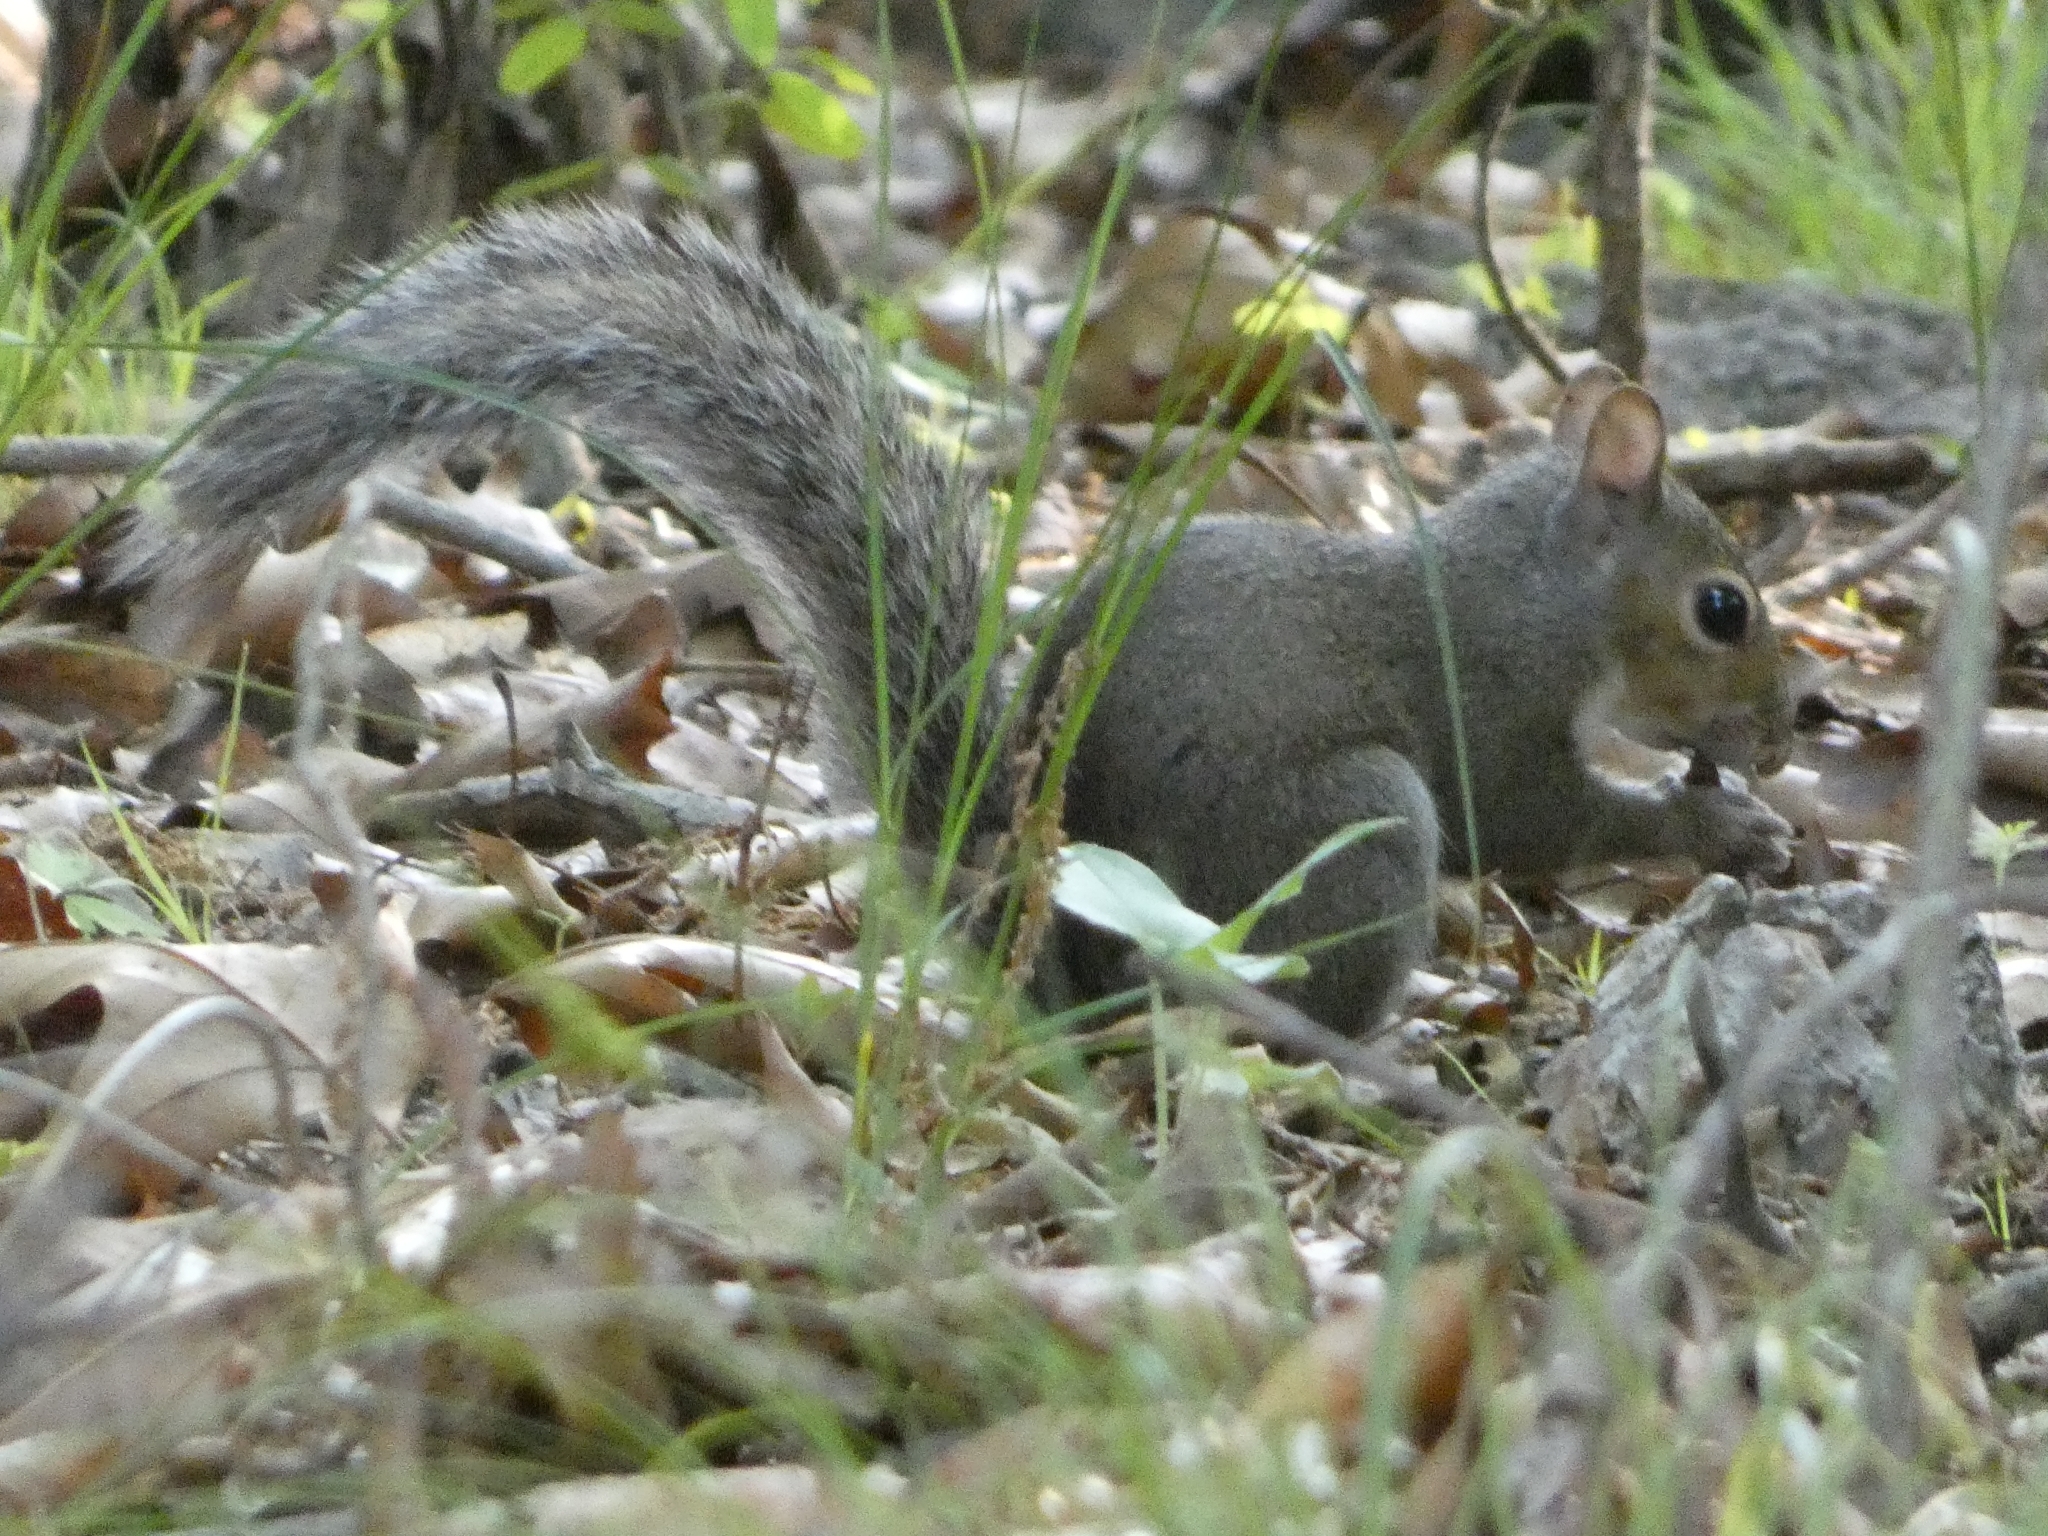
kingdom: Animalia
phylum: Chordata
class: Mammalia
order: Rodentia
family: Sciuridae
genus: Sciurus
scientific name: Sciurus carolinensis
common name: Eastern gray squirrel
